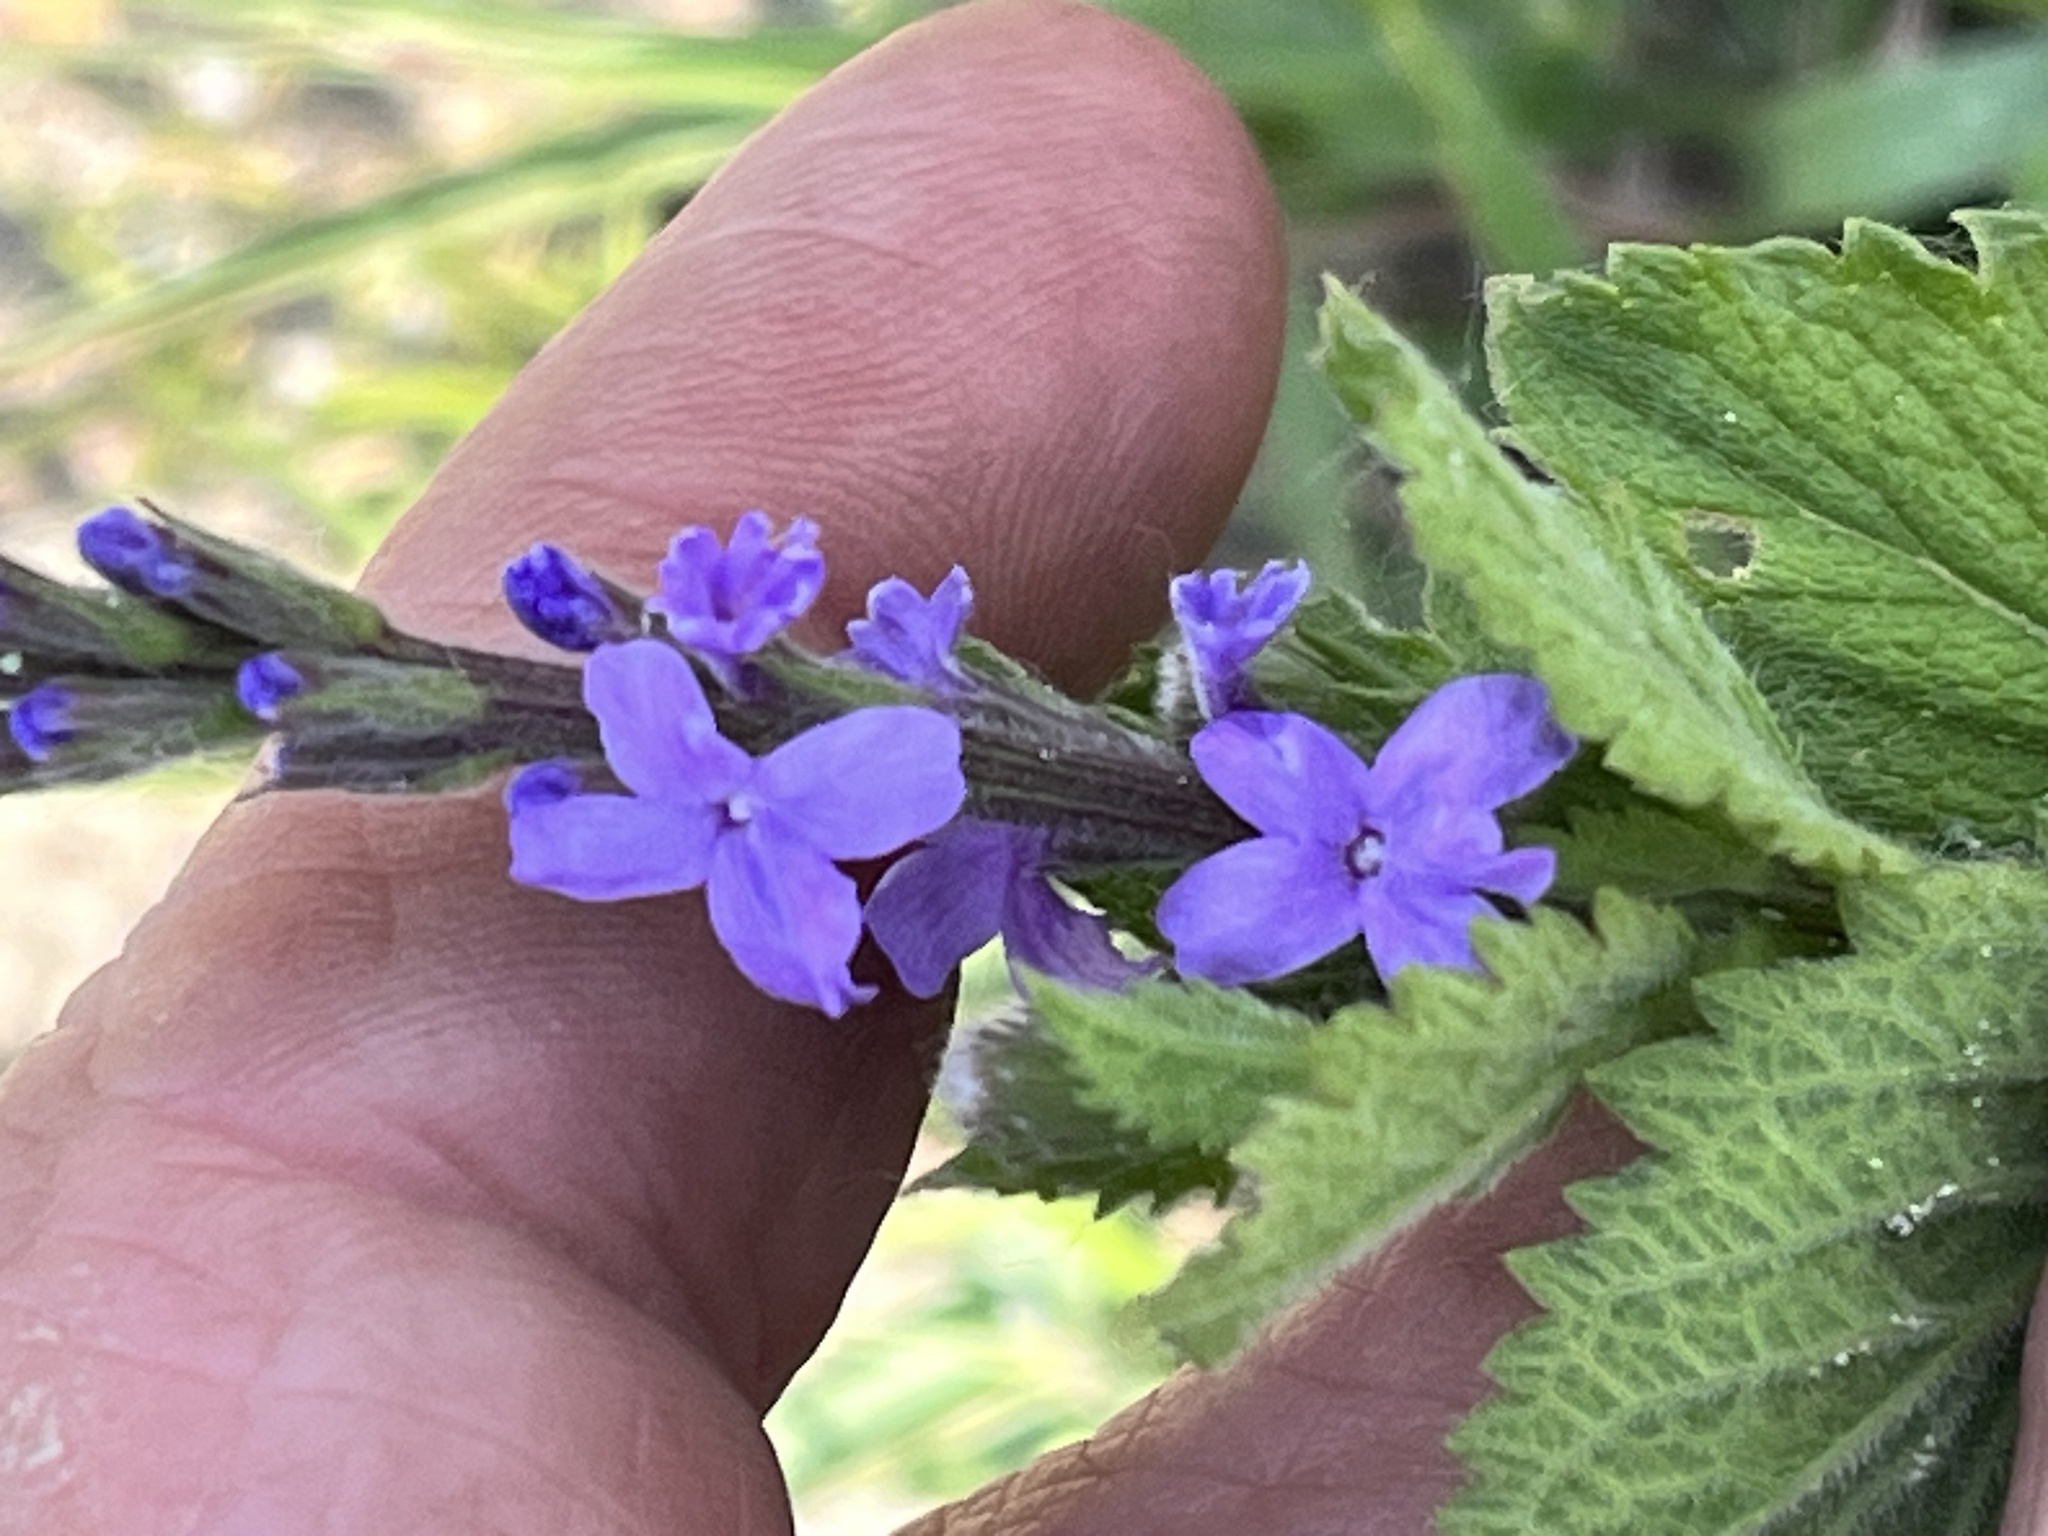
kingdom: Plantae
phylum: Tracheophyta
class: Magnoliopsida
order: Lamiales
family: Verbenaceae
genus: Verbena
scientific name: Verbena stricta
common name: Hoary vervain
